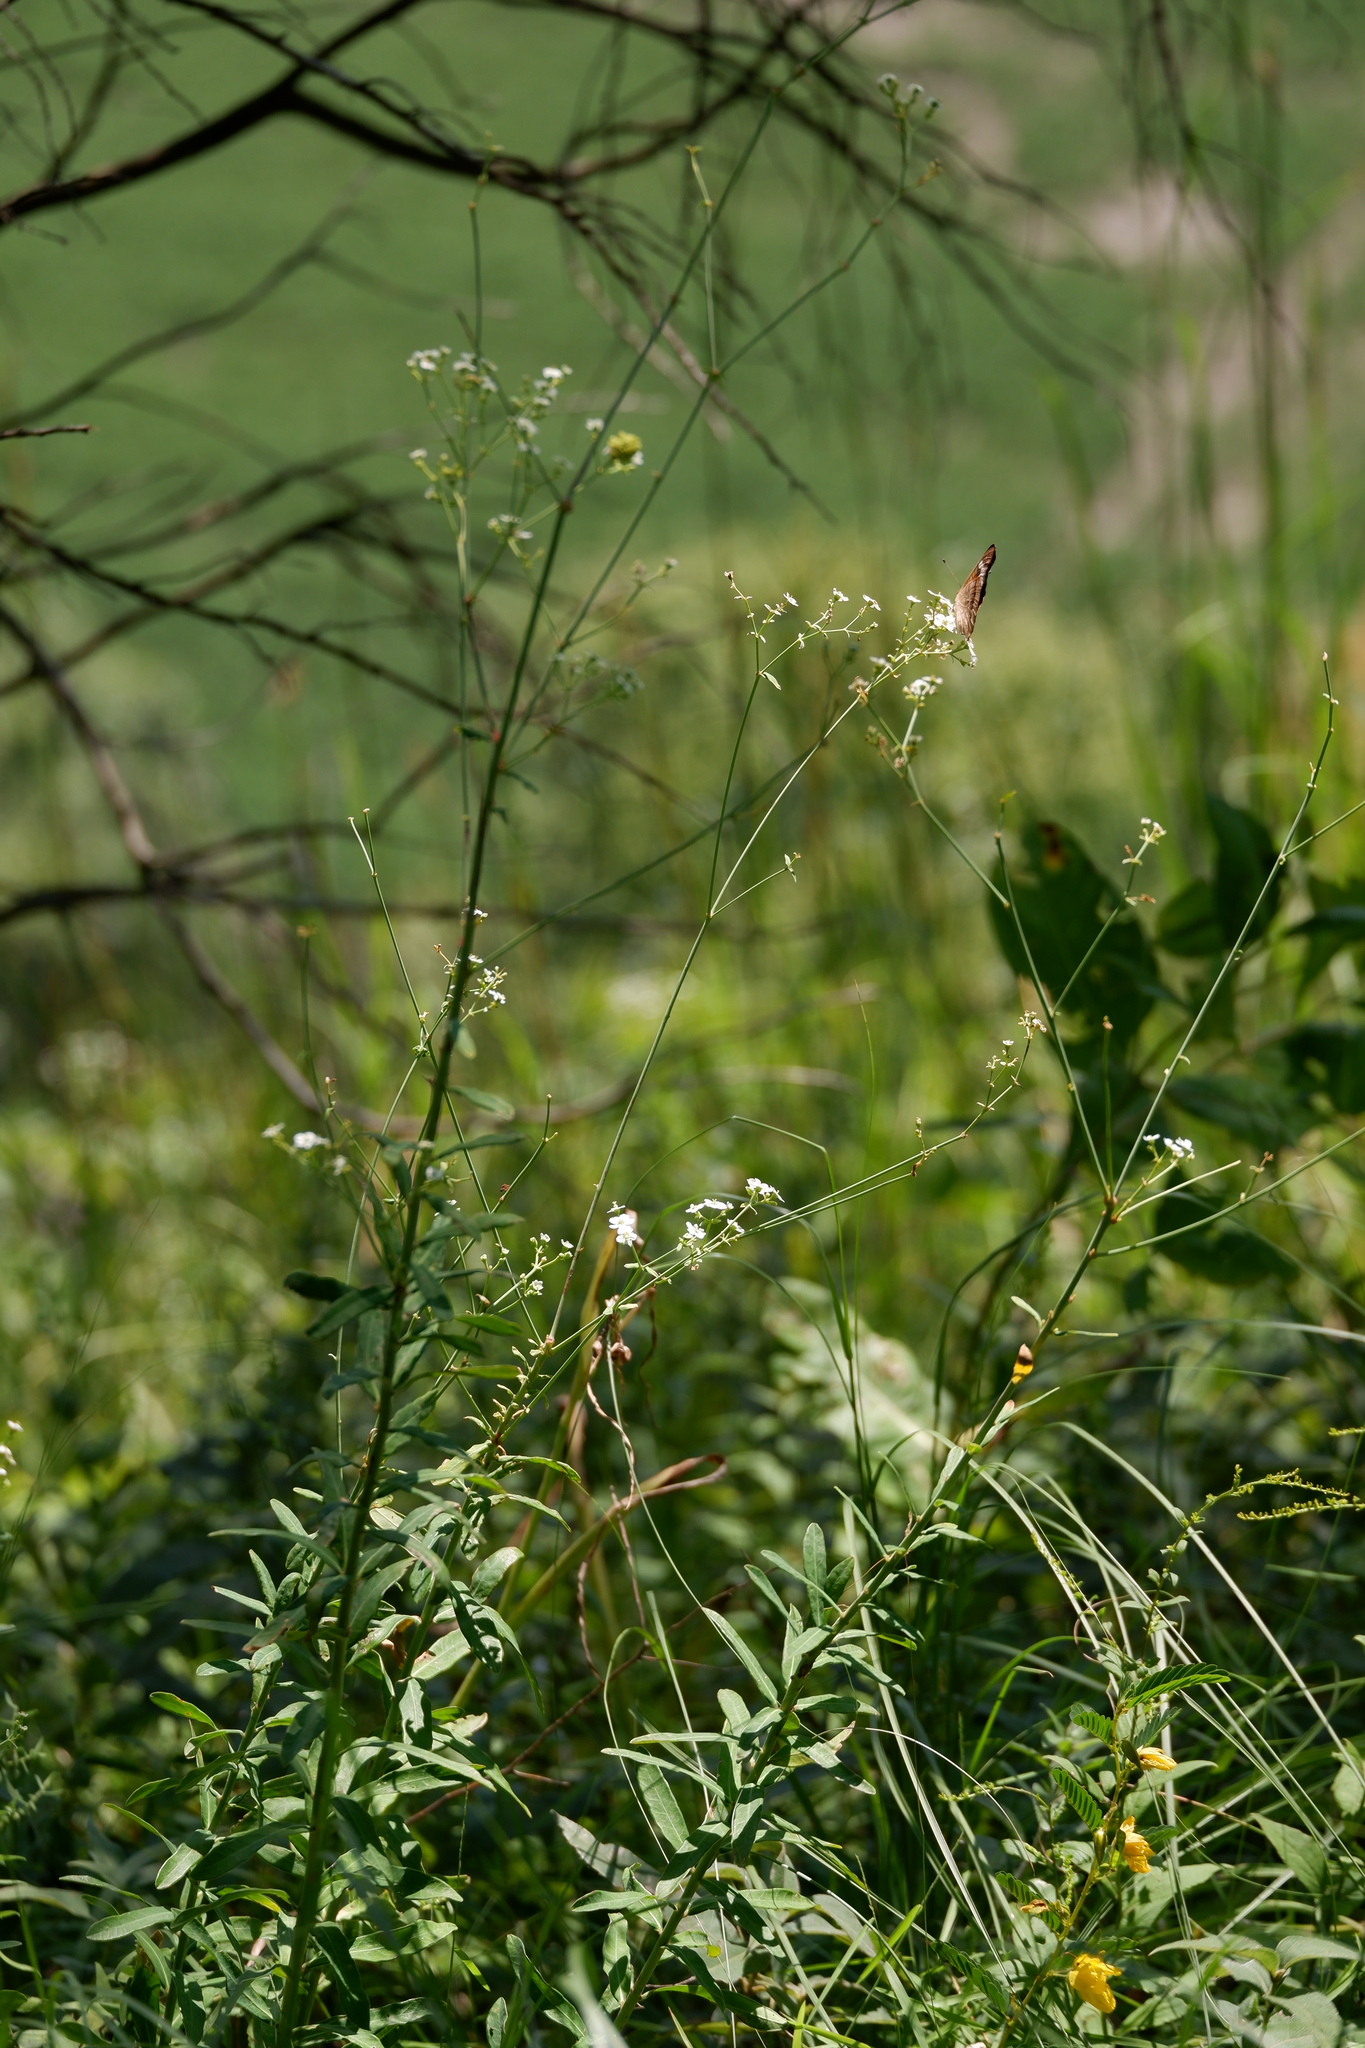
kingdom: Plantae
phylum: Tracheophyta
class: Magnoliopsida
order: Malpighiales
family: Euphorbiaceae
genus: Euphorbia
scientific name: Euphorbia corollata
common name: Flowering spurge
